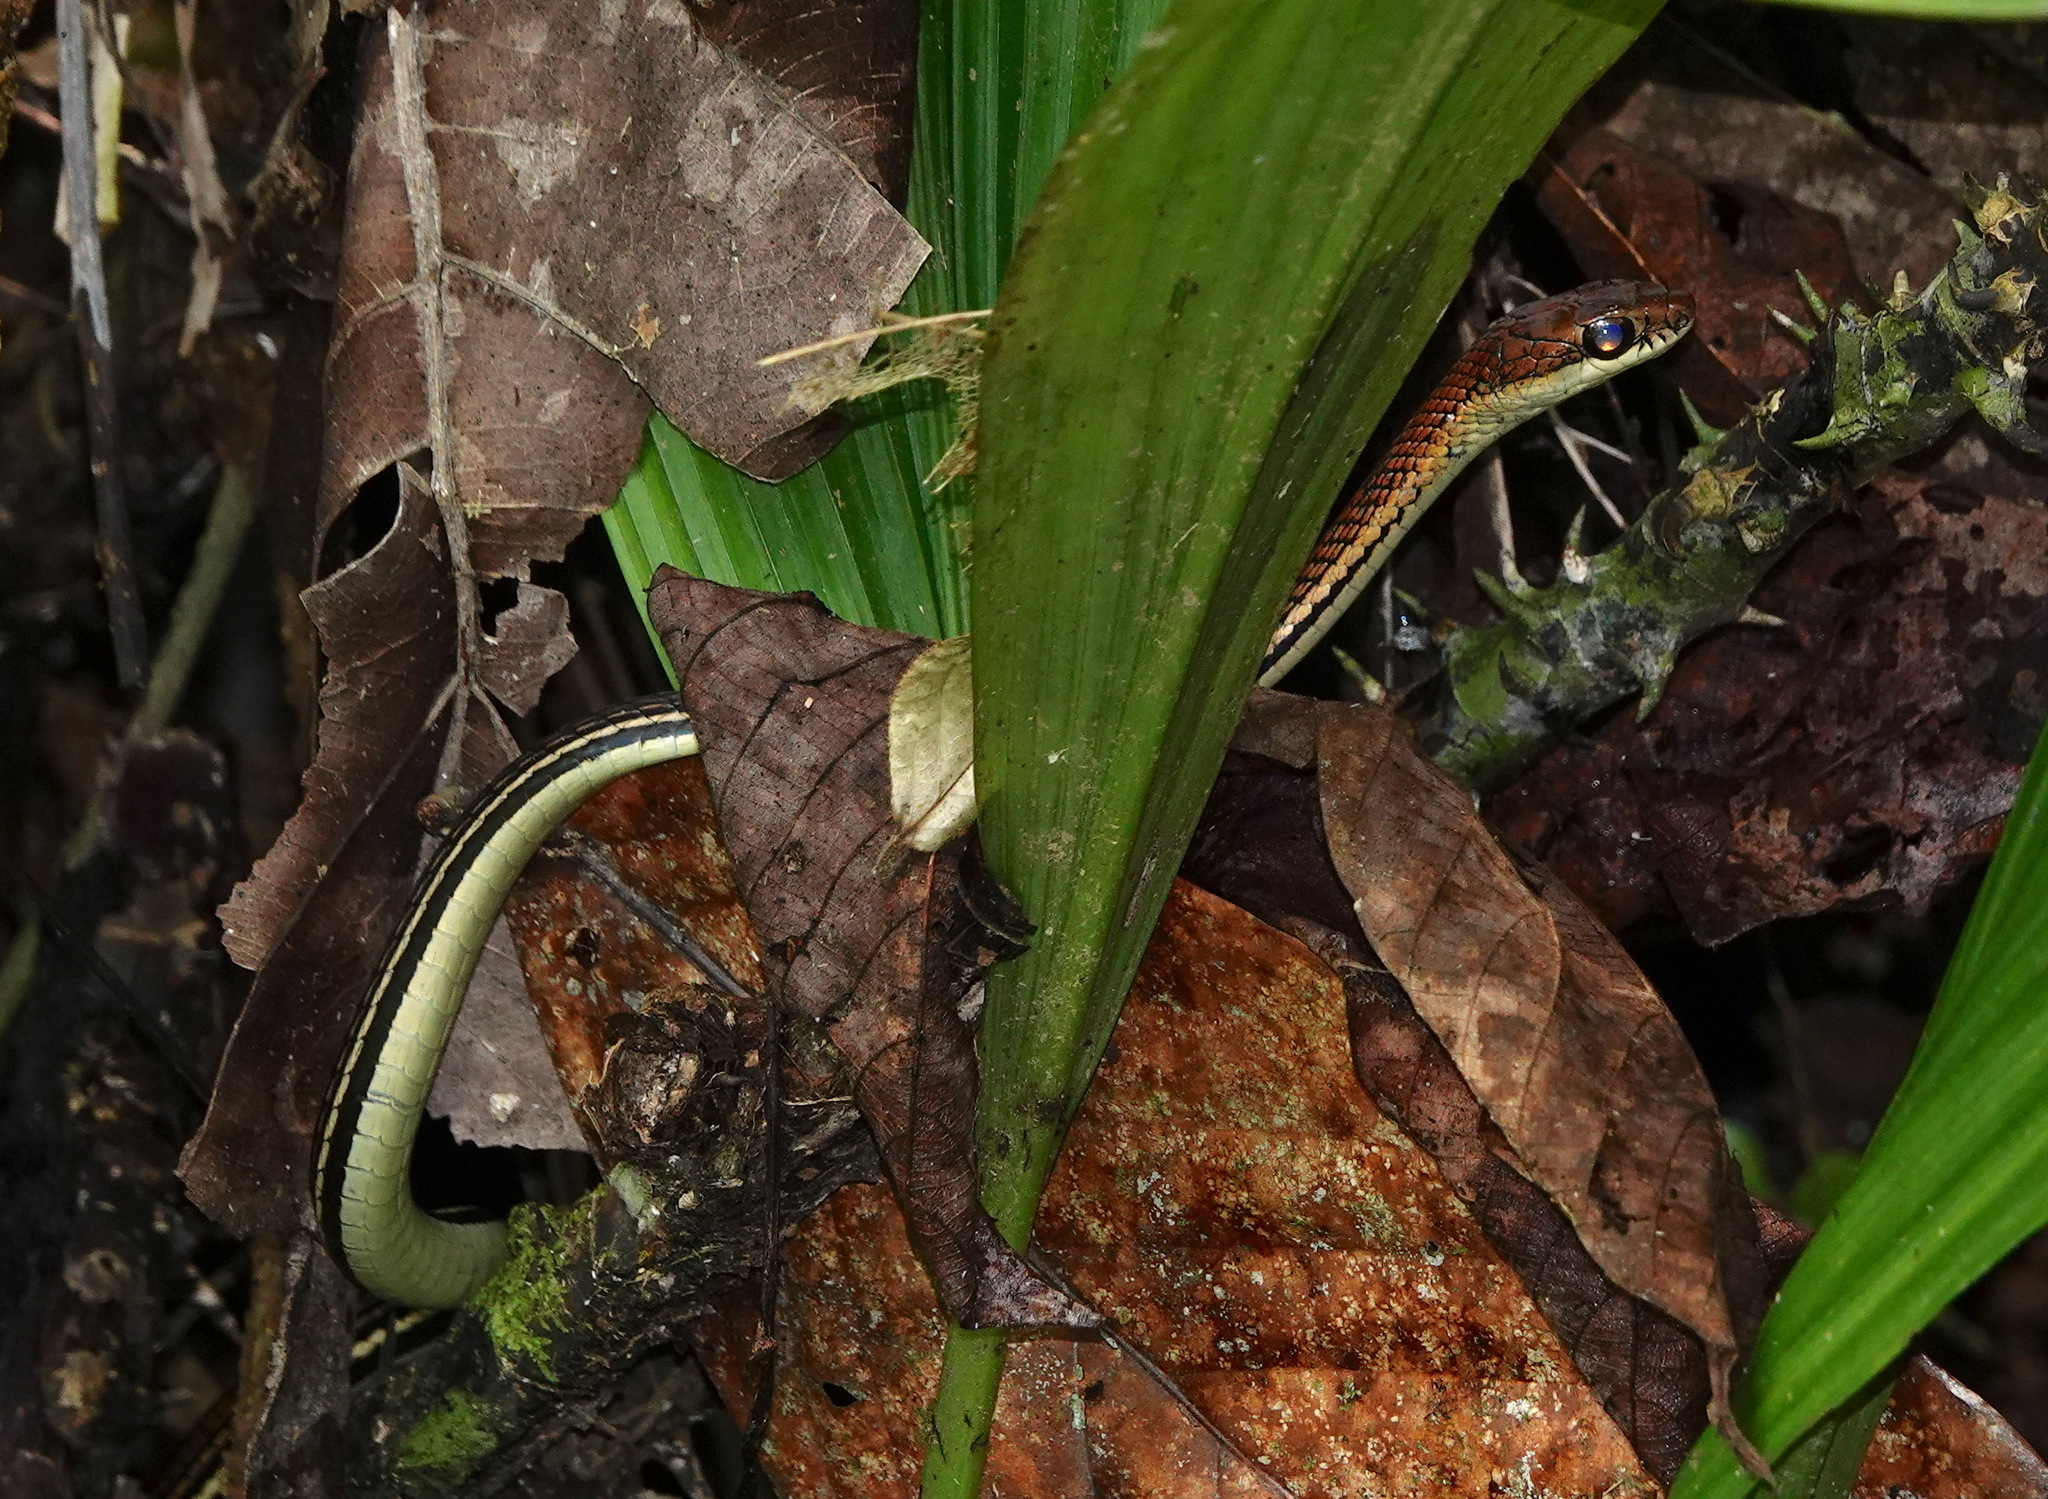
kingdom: Animalia
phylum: Chordata
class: Squamata
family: Colubridae
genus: Dendrelaphis
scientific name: Dendrelaphis caudolineatus
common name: Striped bronzeback
